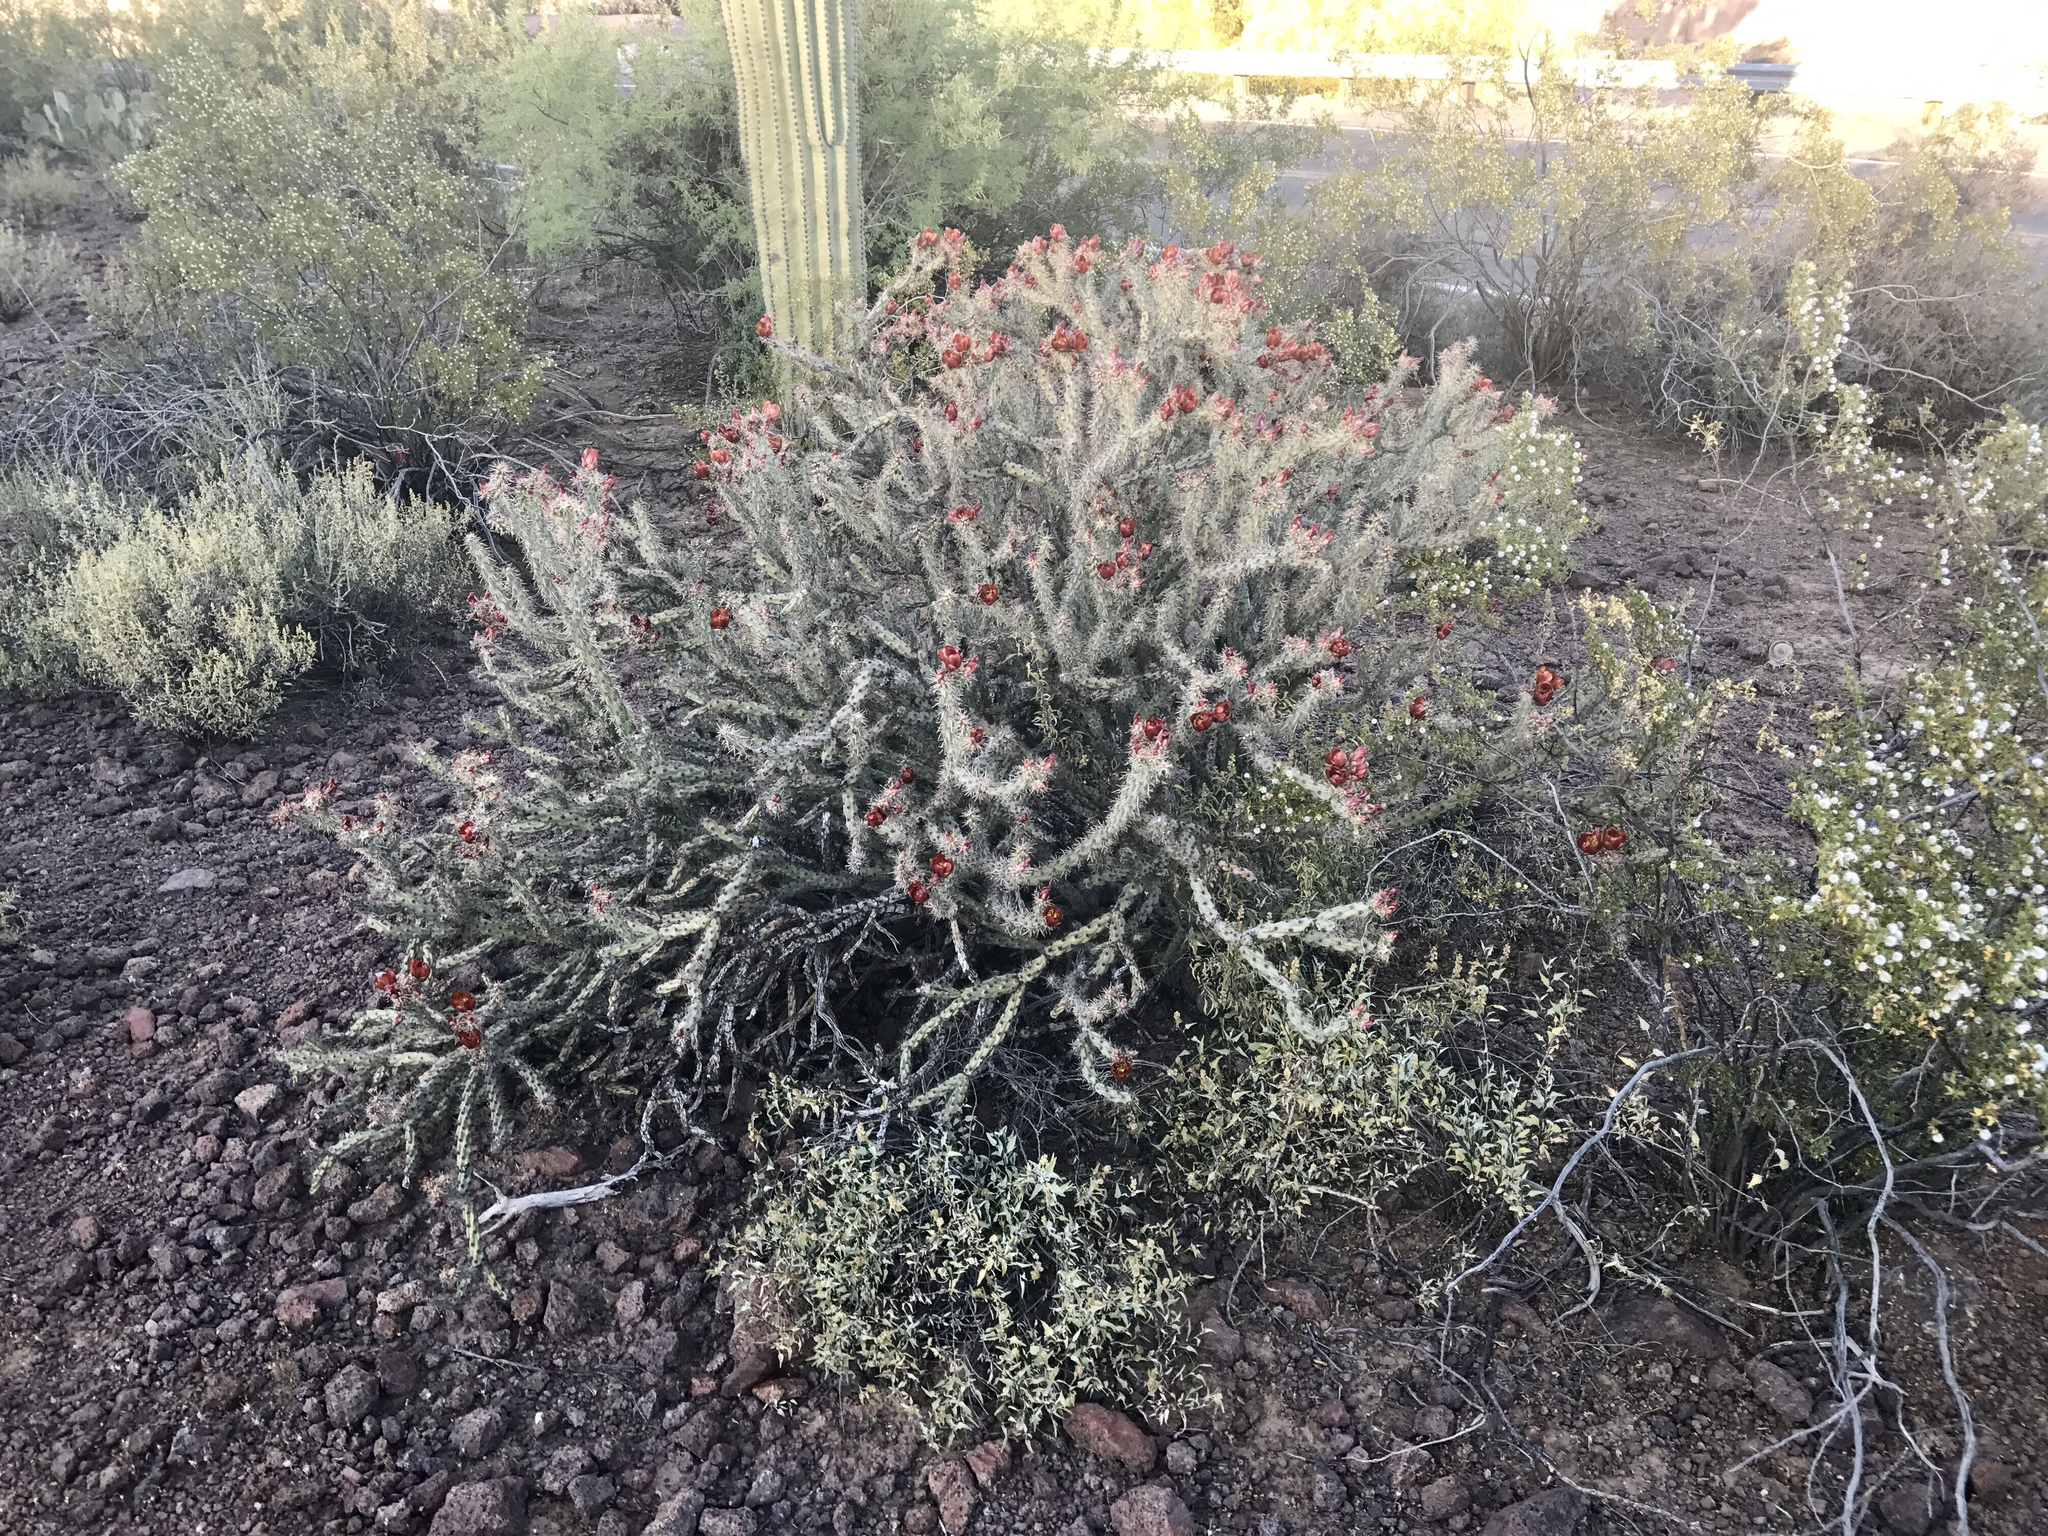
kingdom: Plantae
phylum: Tracheophyta
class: Magnoliopsida
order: Caryophyllales
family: Cactaceae
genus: Cylindropuntia
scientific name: Cylindropuntia thurberi
